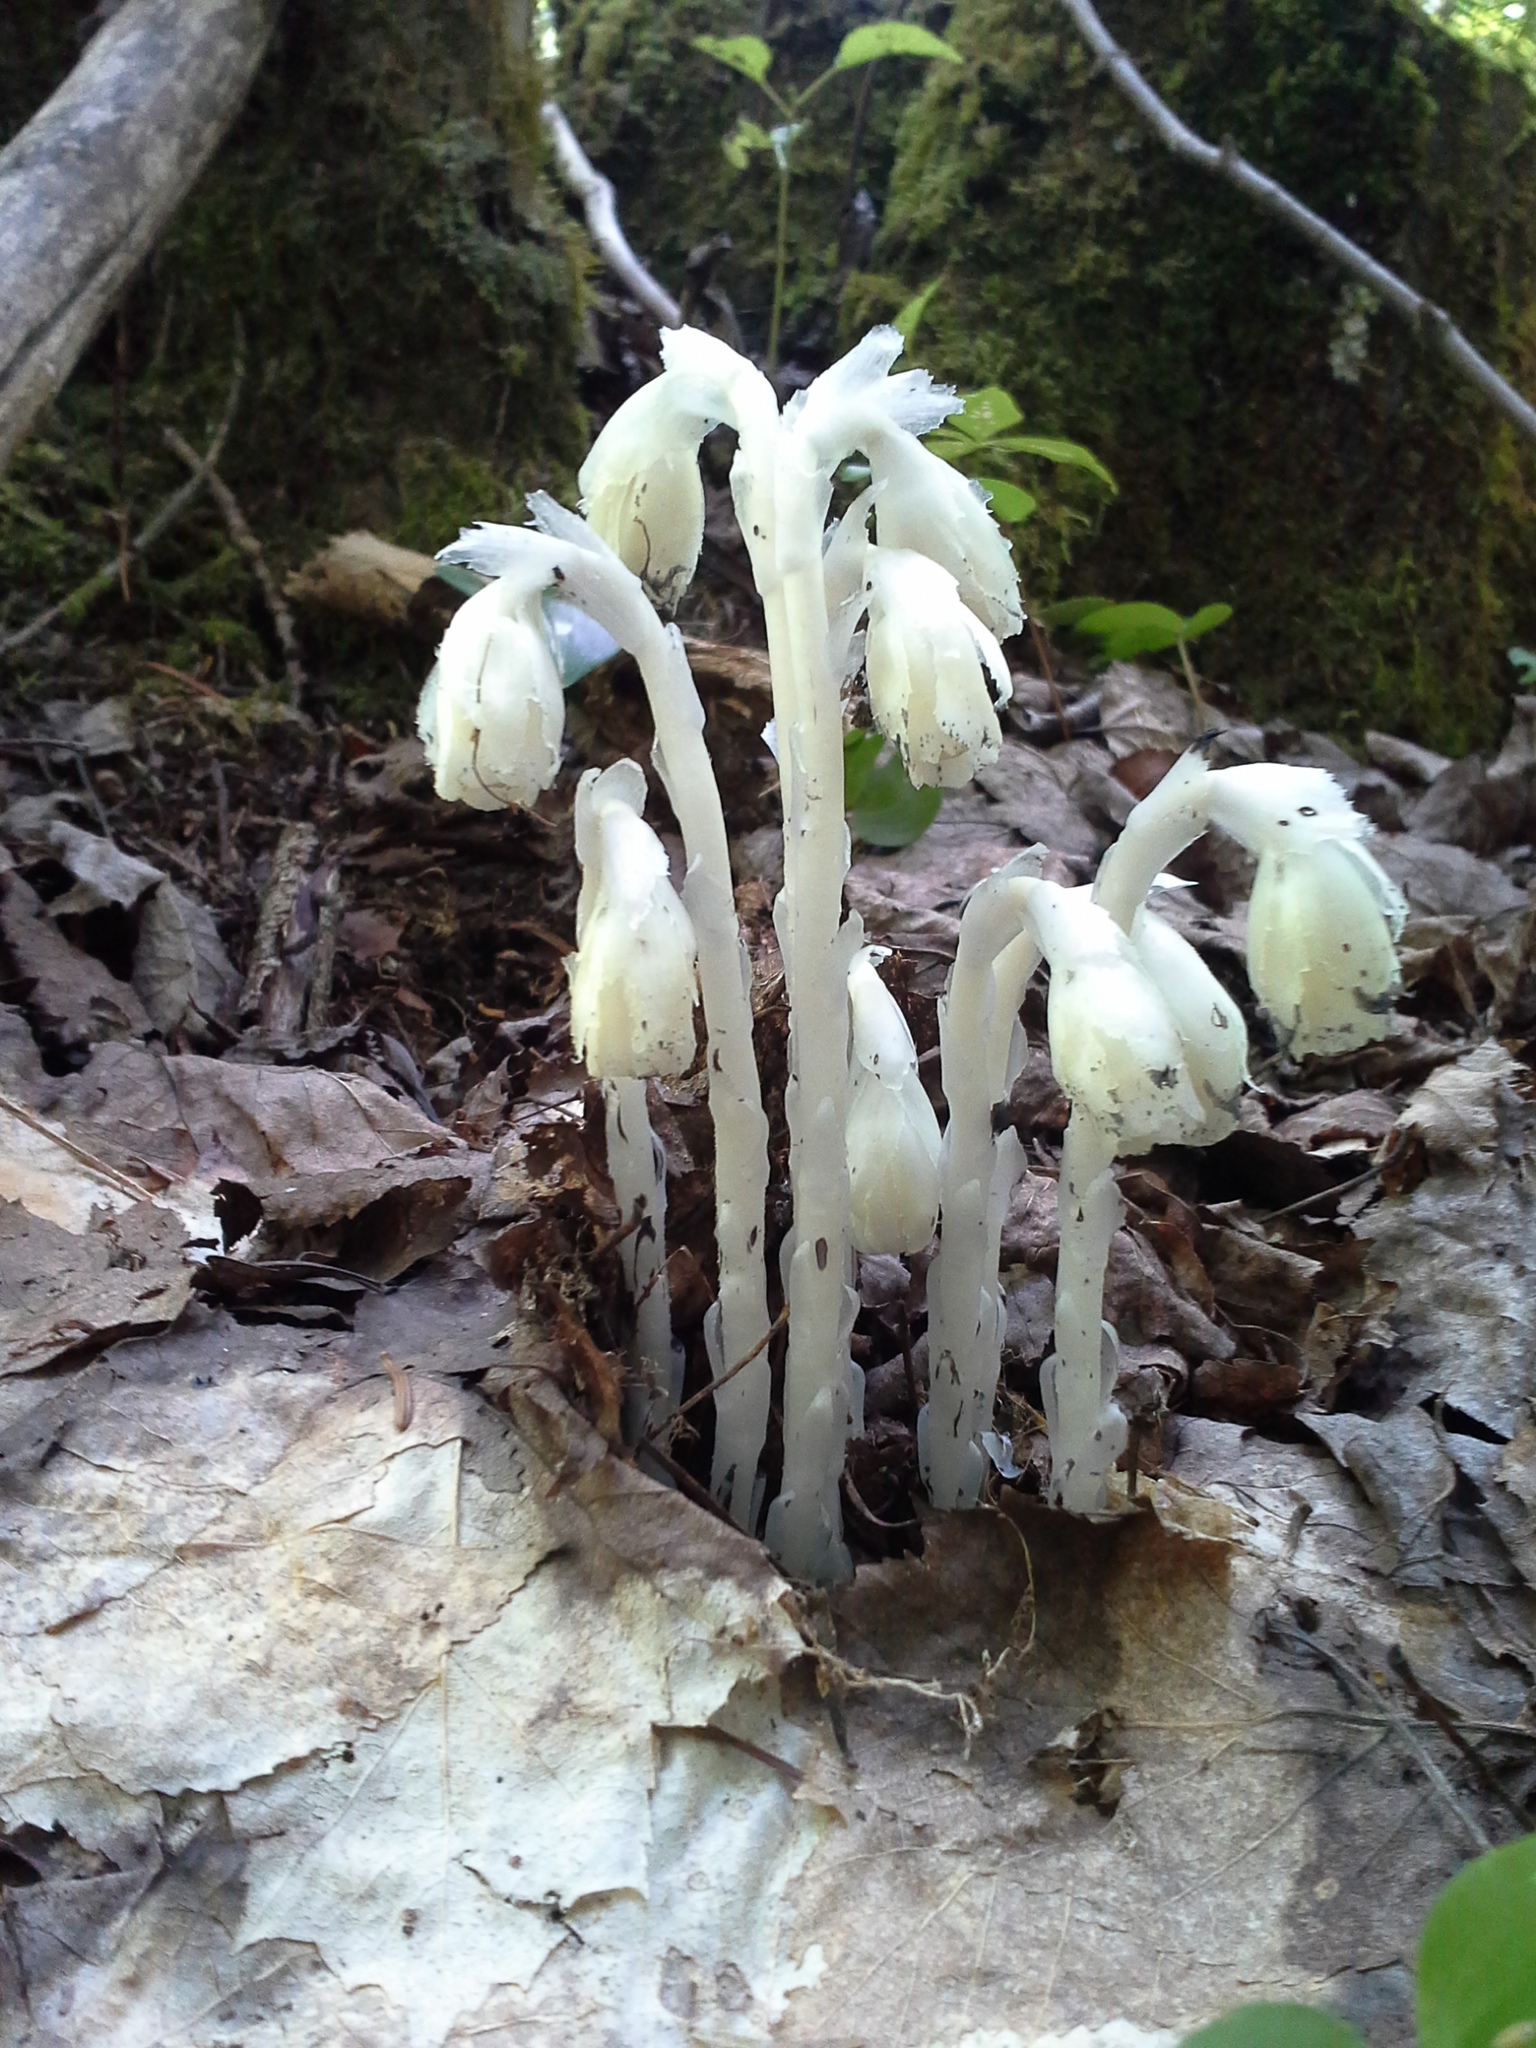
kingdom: Plantae
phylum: Tracheophyta
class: Magnoliopsida
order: Ericales
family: Ericaceae
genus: Monotropa
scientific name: Monotropa uniflora
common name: Convulsion root
